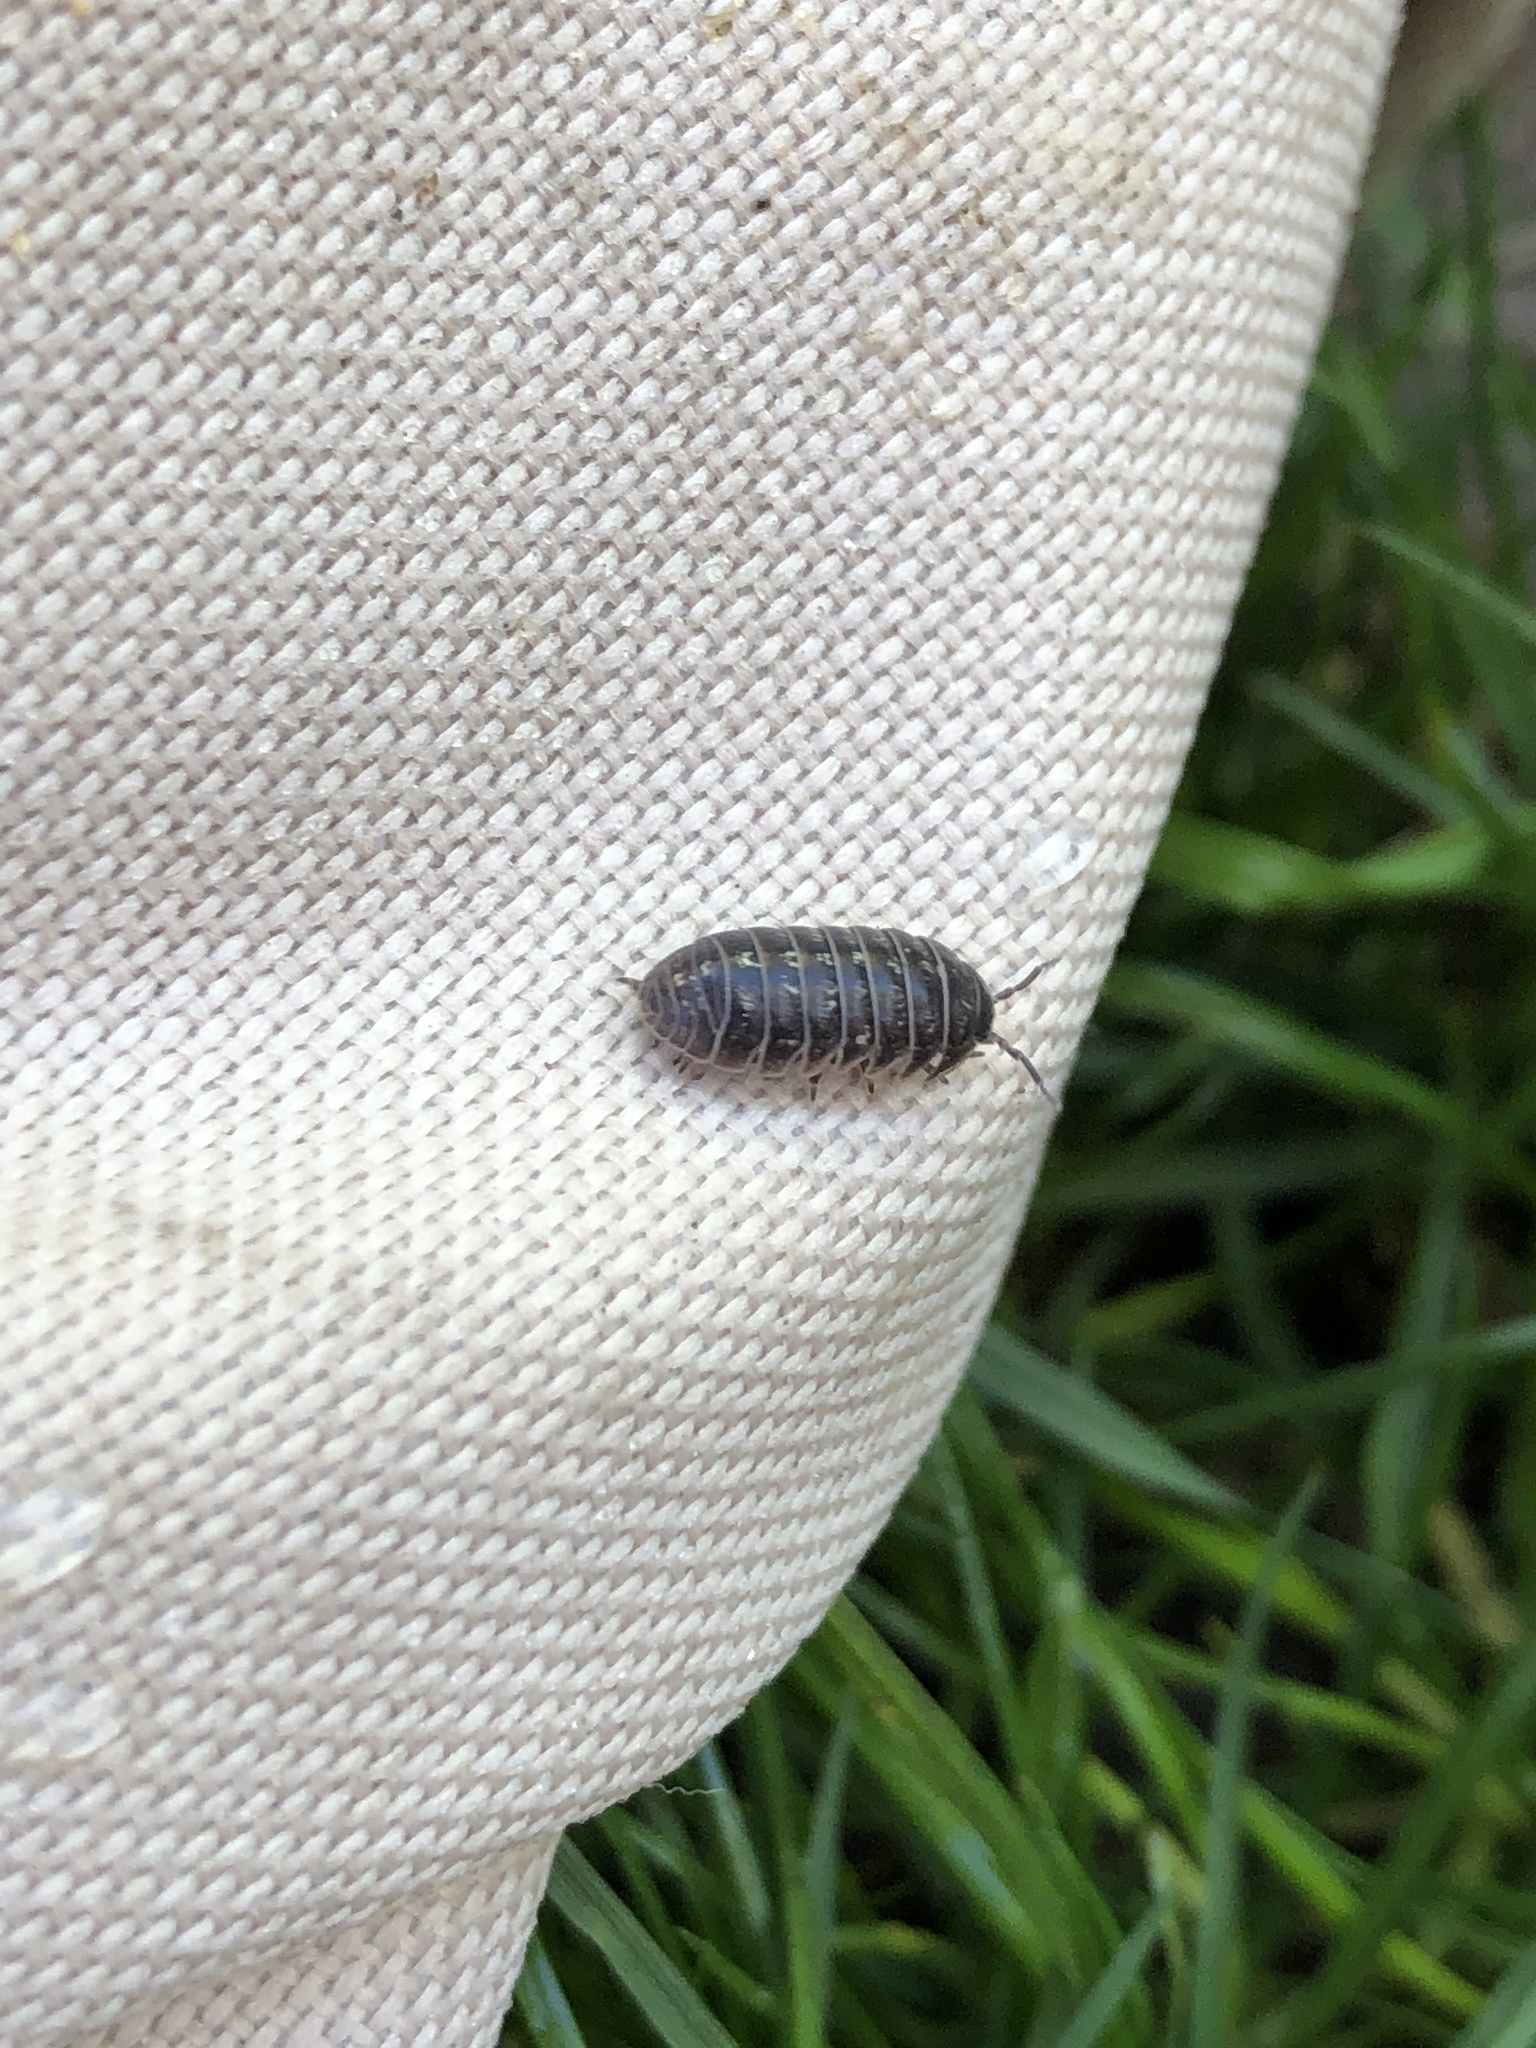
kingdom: Animalia
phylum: Arthropoda
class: Malacostraca
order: Isopoda
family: Armadillidiidae
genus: Armadillidium
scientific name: Armadillidium vulgare
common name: Common pill woodlouse
